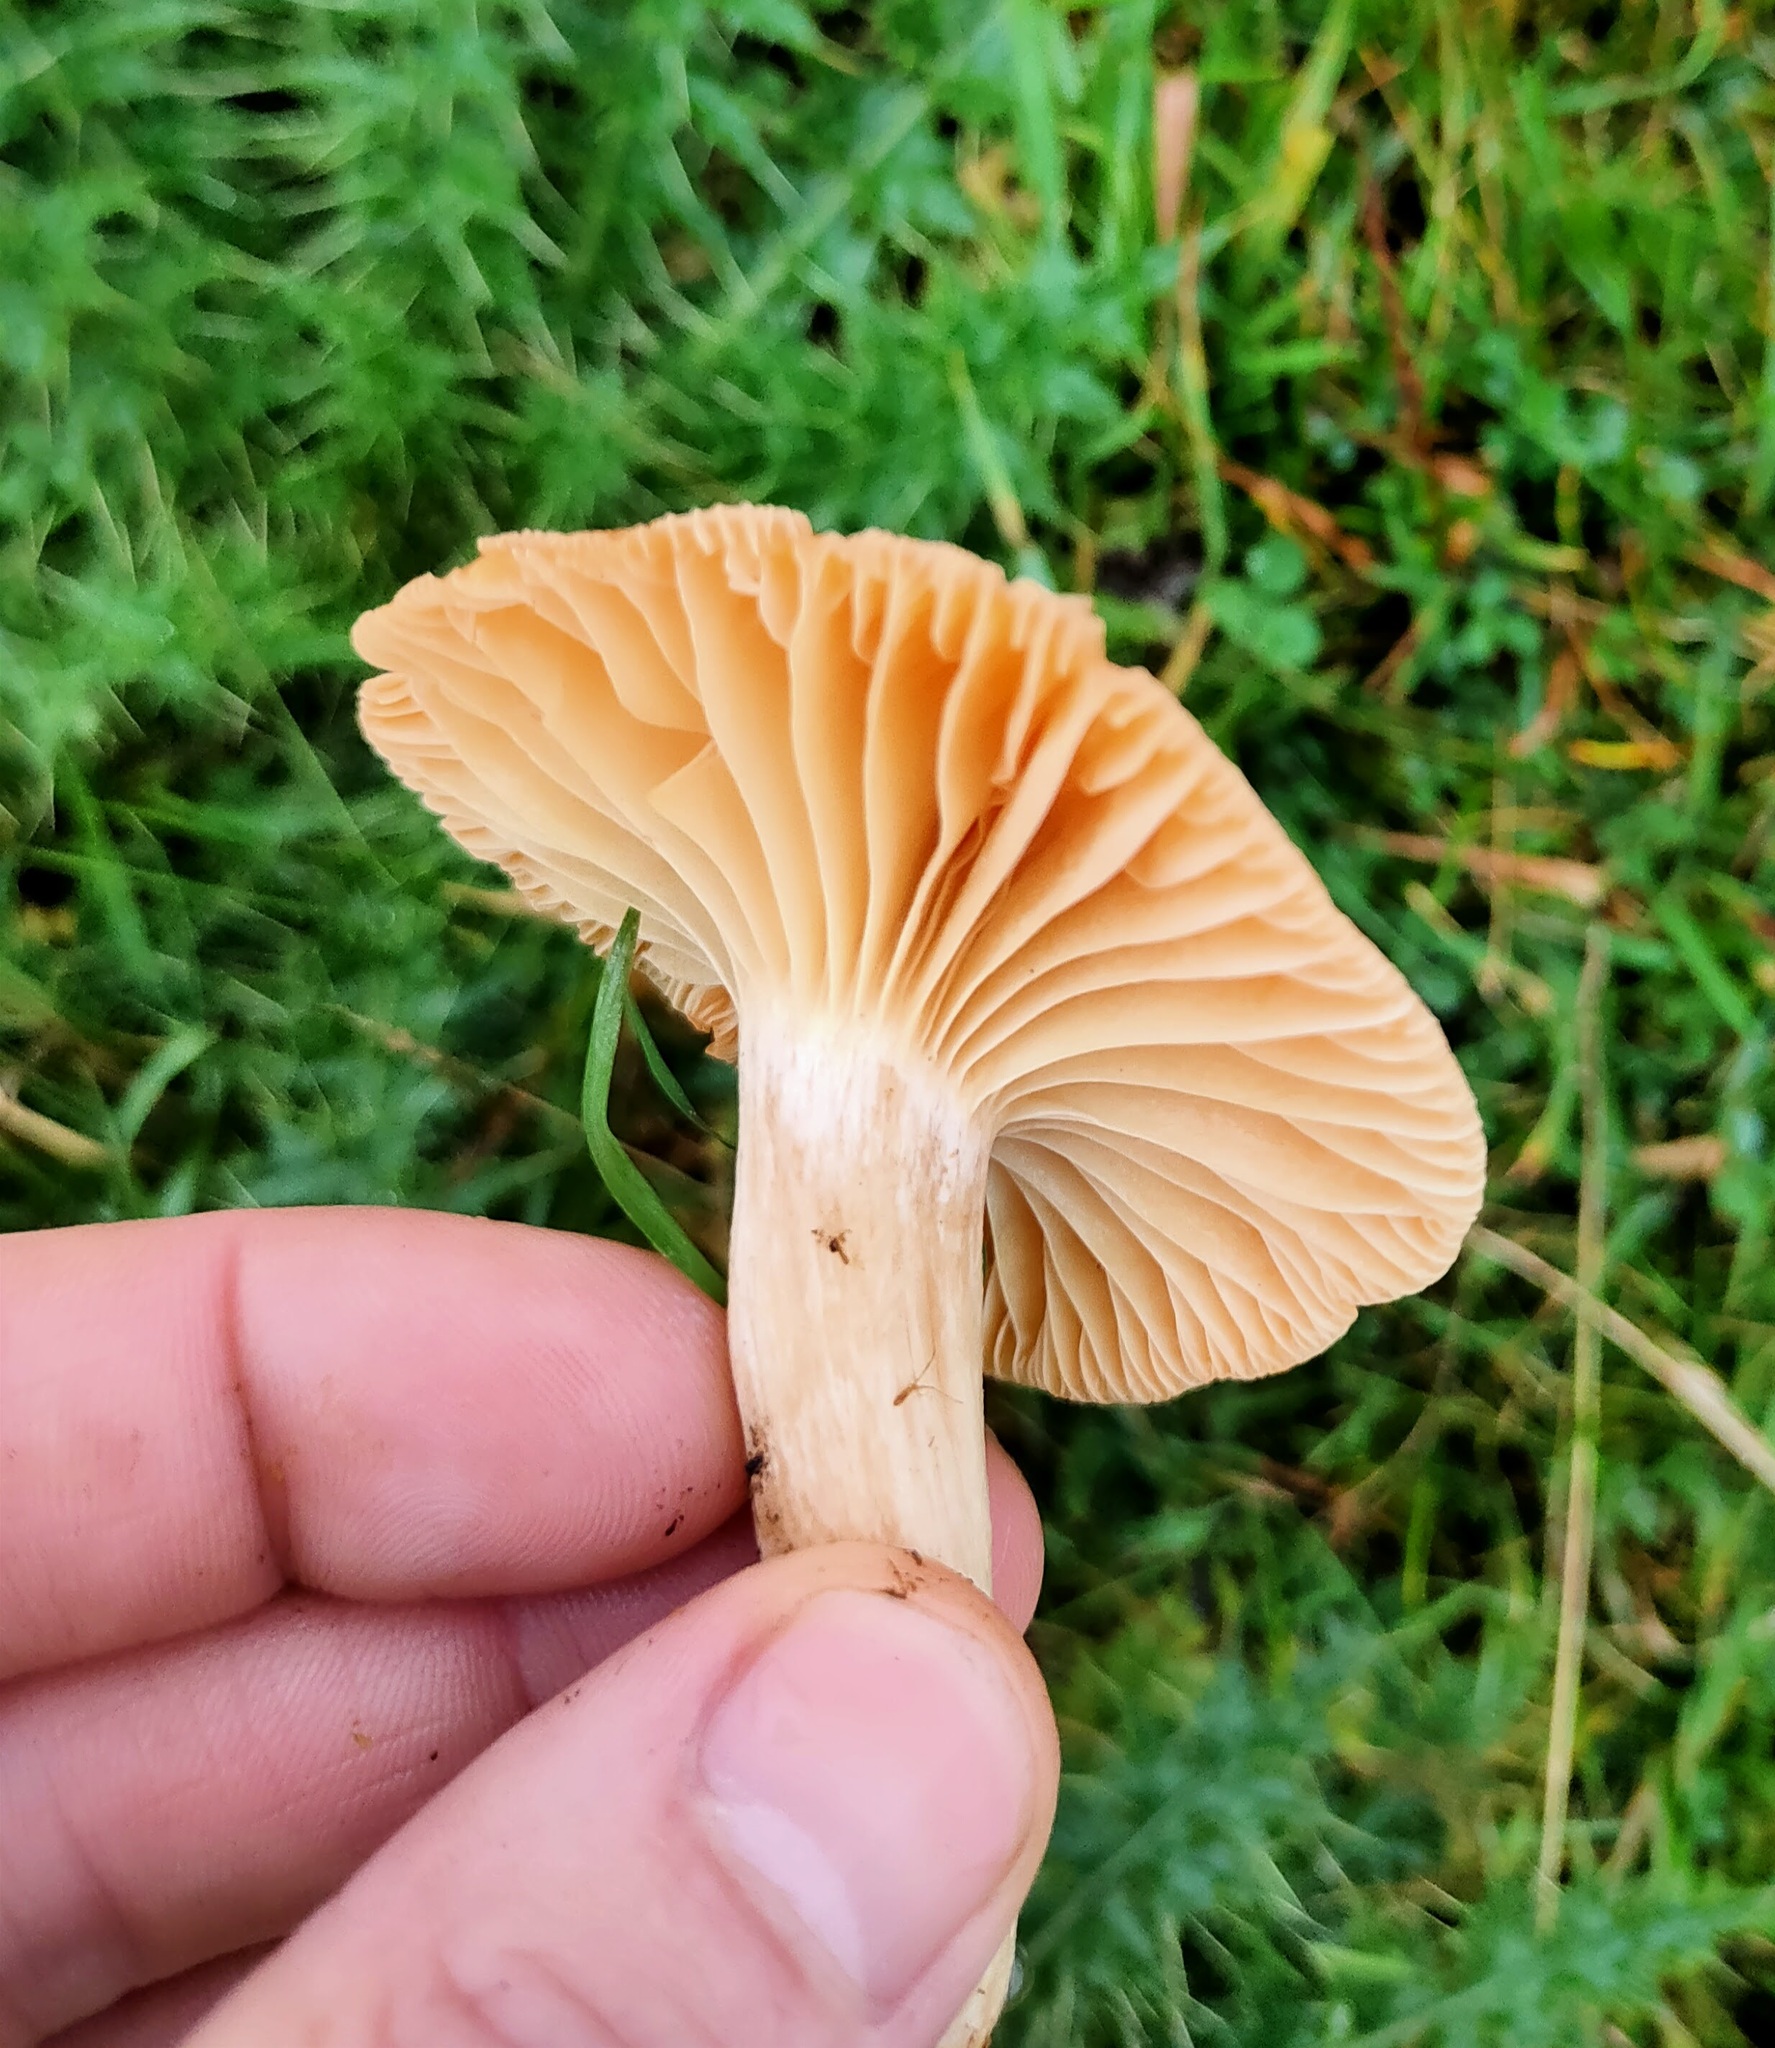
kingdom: Fungi
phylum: Basidiomycota
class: Agaricomycetes
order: Agaricales
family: Hygrophoraceae
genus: Cuphophyllus
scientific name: Cuphophyllus pratensis
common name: Meadow waxcap
